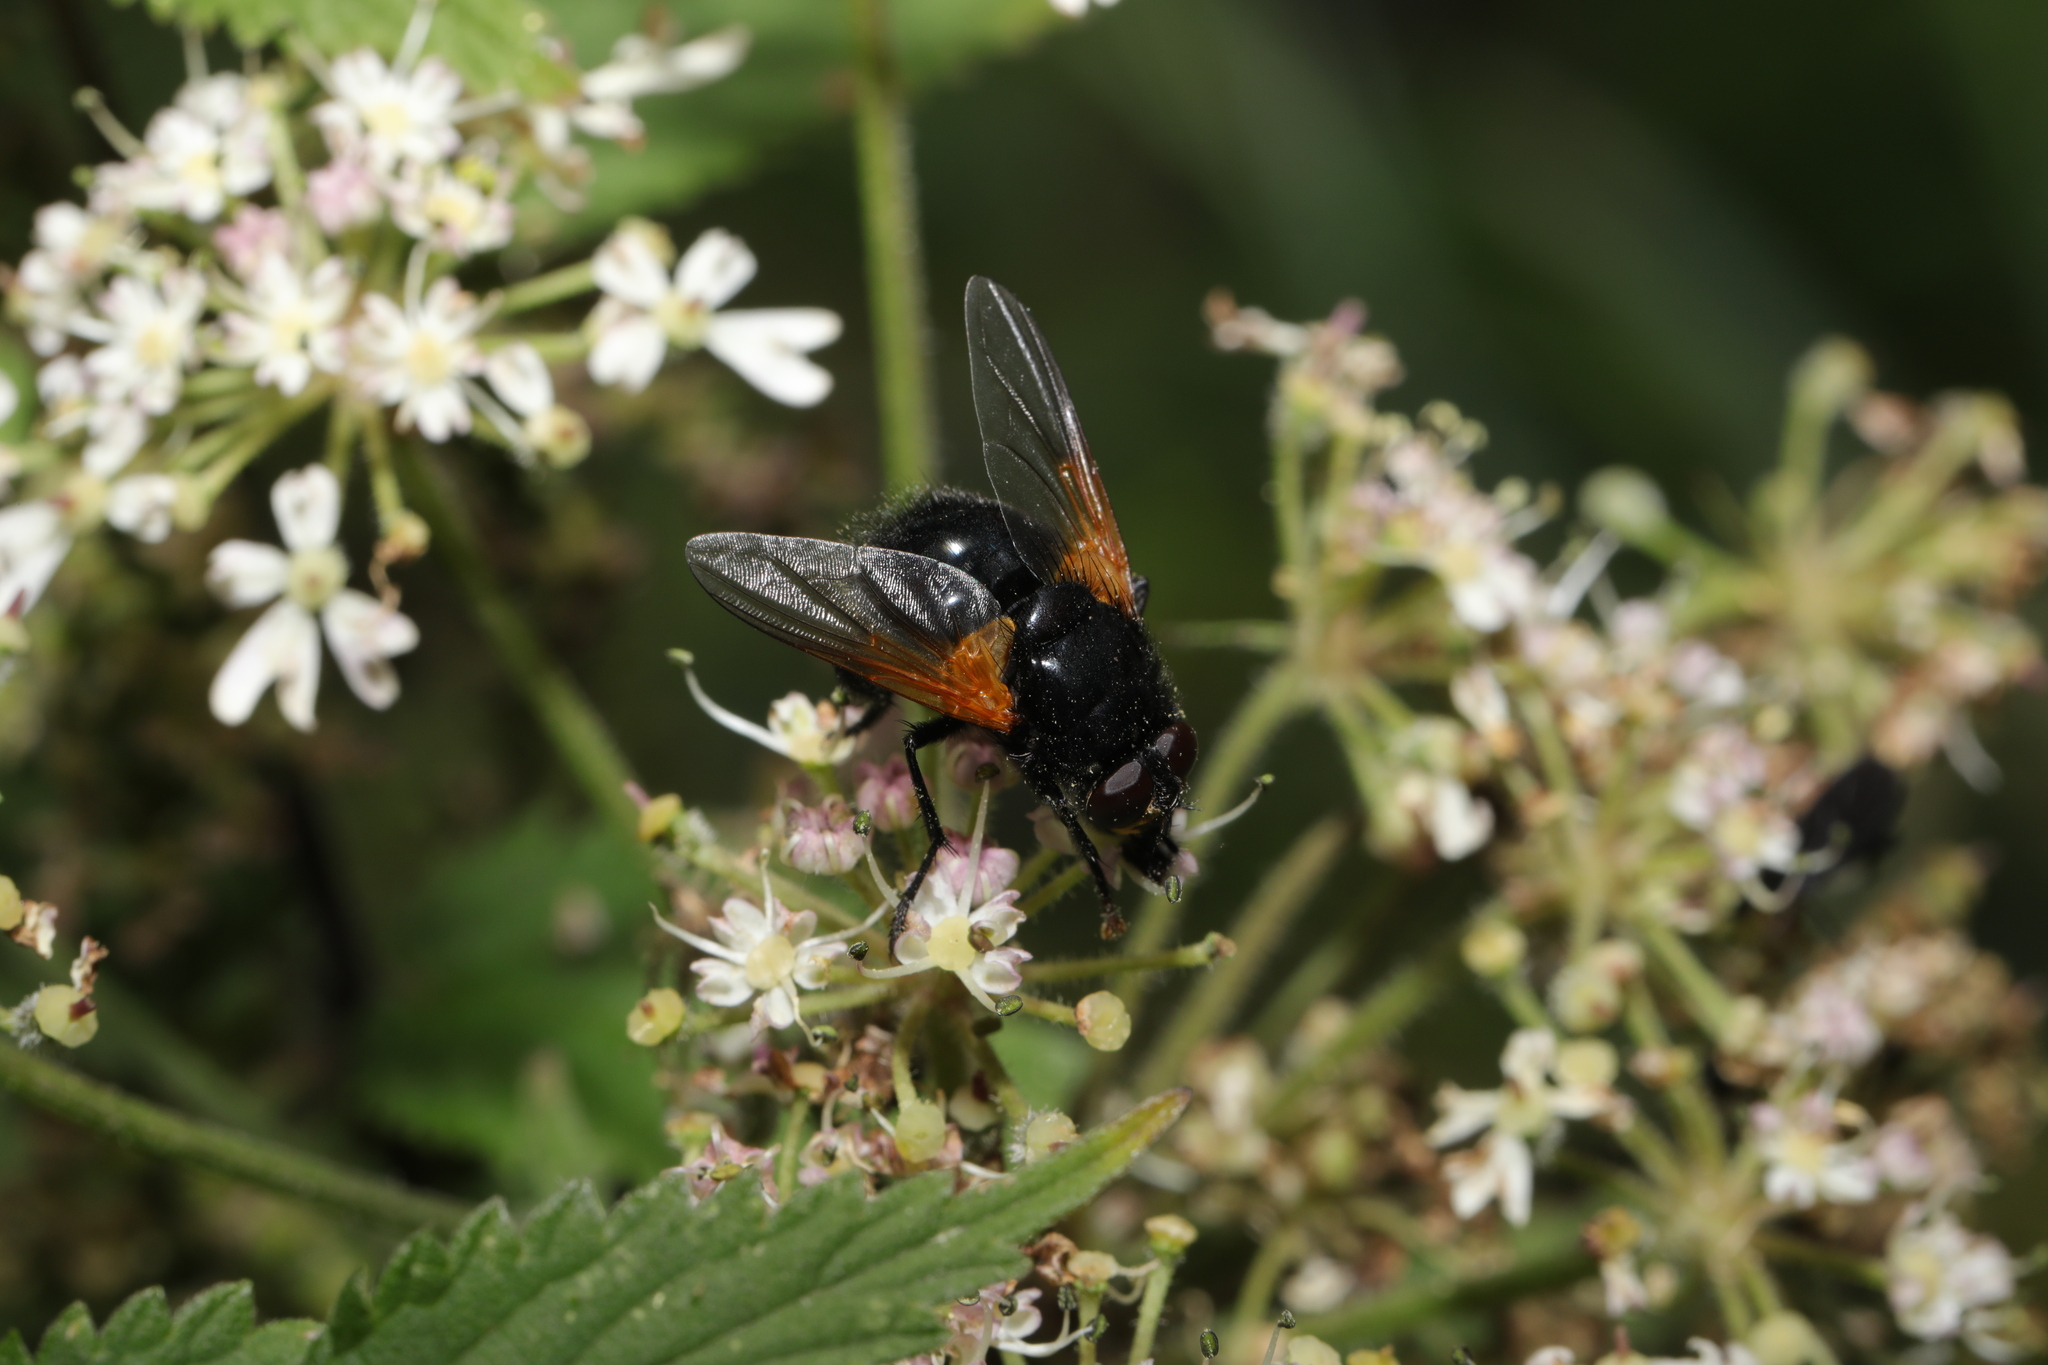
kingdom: Animalia
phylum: Arthropoda
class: Insecta
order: Diptera
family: Muscidae
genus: Mesembrina
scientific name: Mesembrina meridiana
